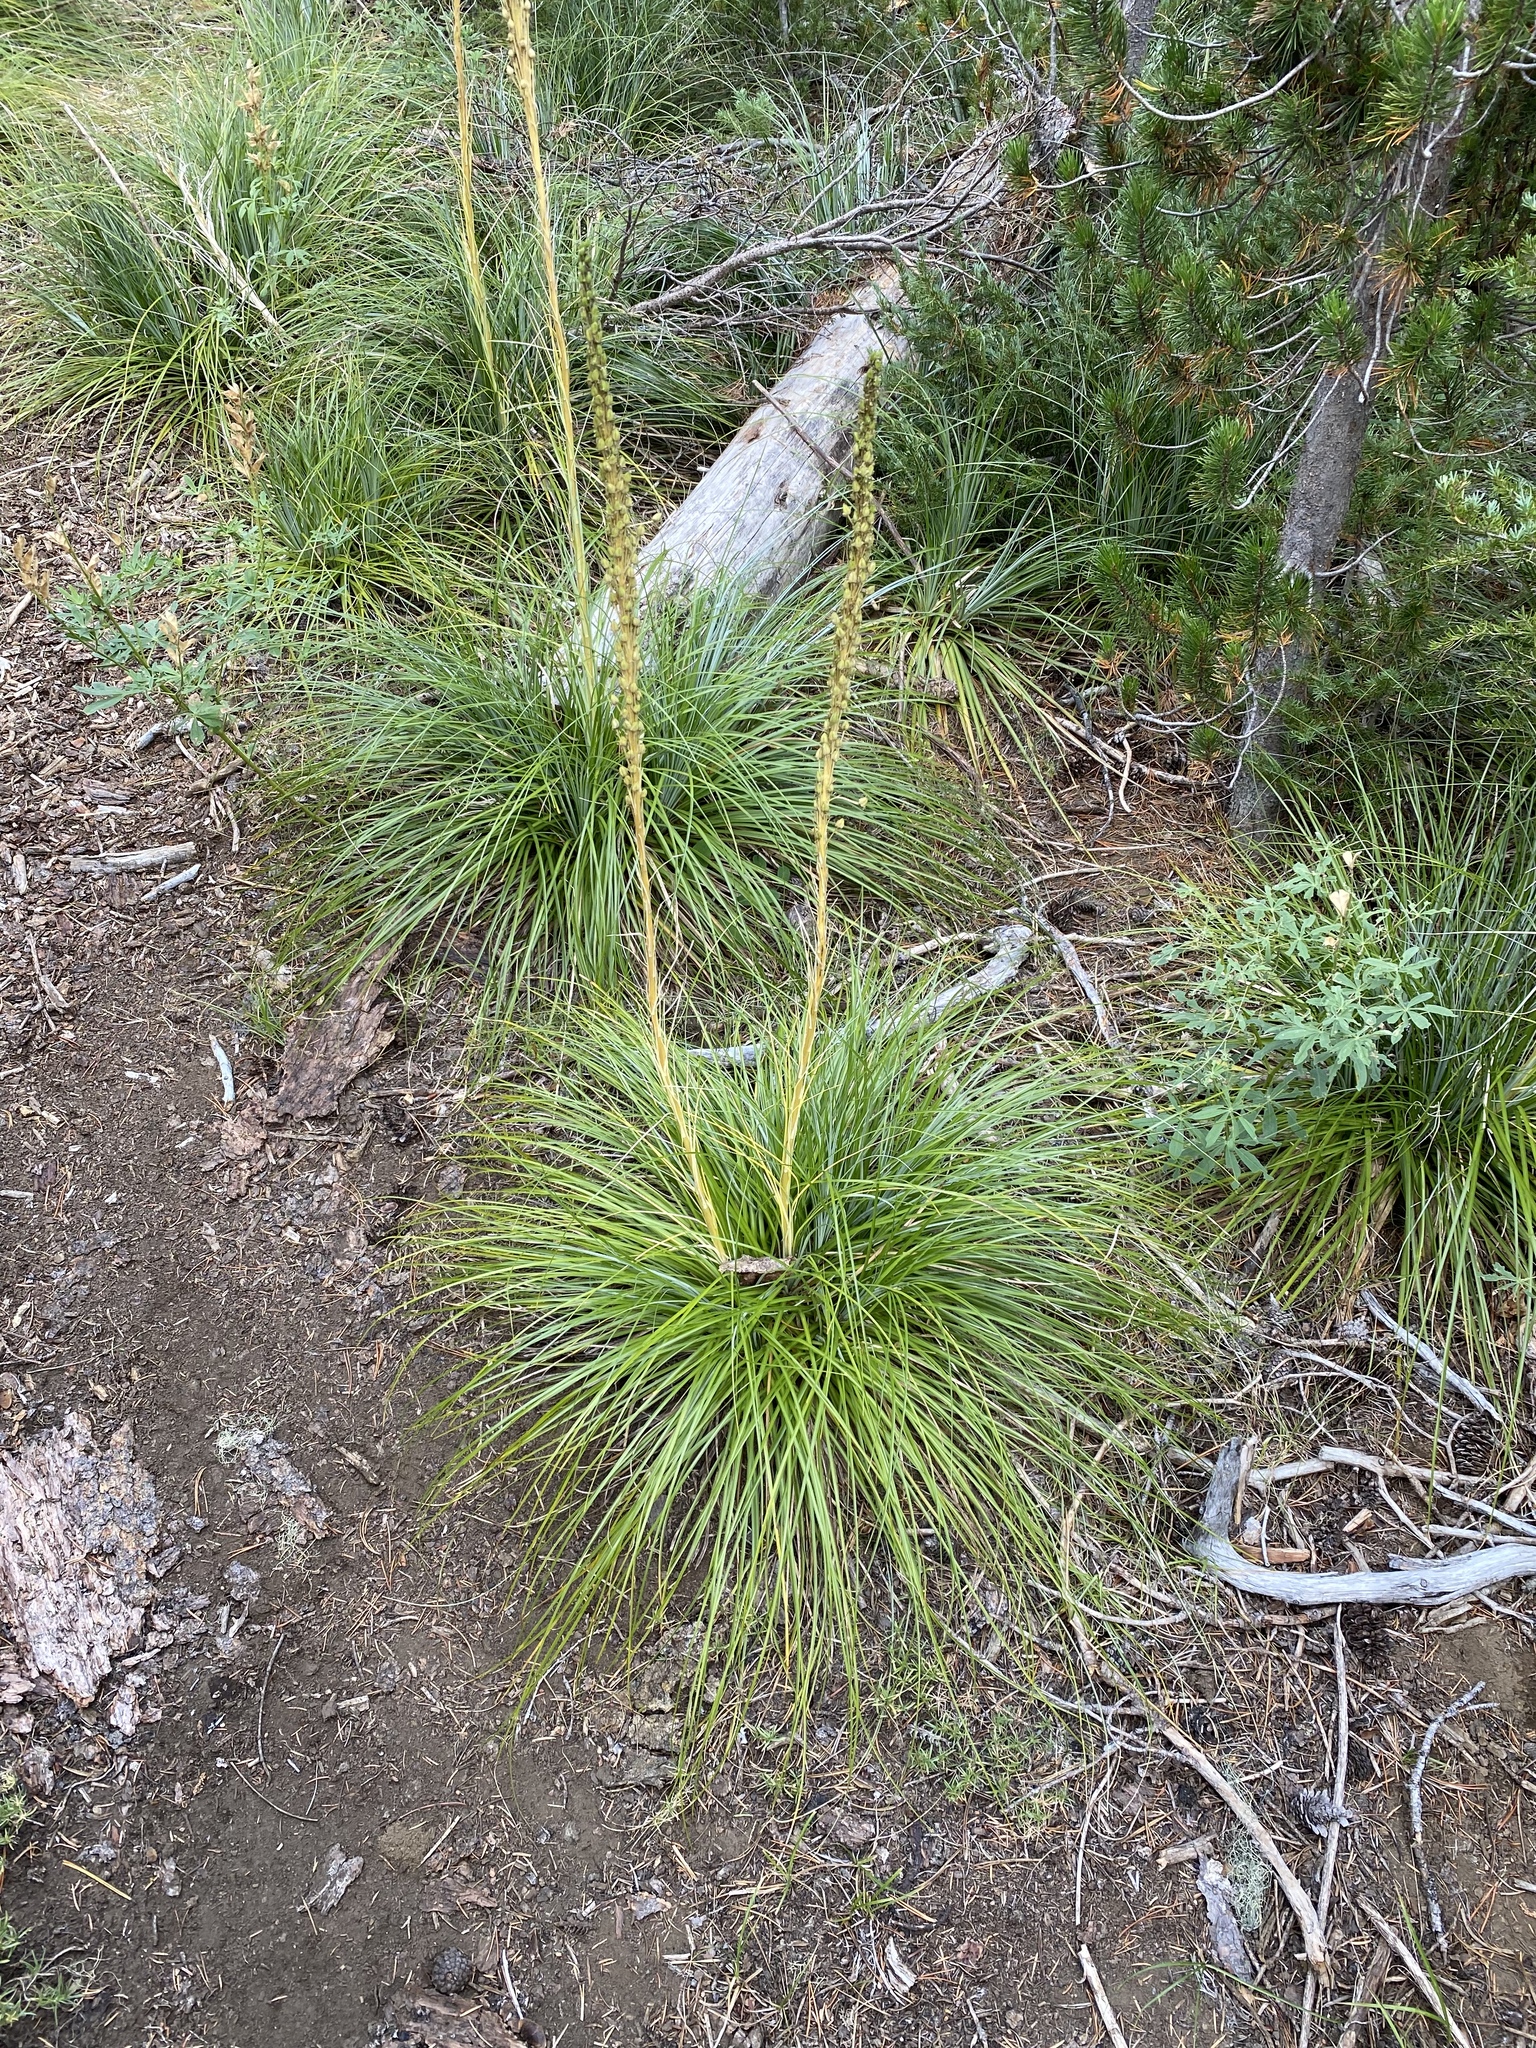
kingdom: Plantae
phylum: Tracheophyta
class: Liliopsida
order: Liliales
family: Melanthiaceae
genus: Xerophyllum
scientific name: Xerophyllum tenax
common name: Bear-grass
